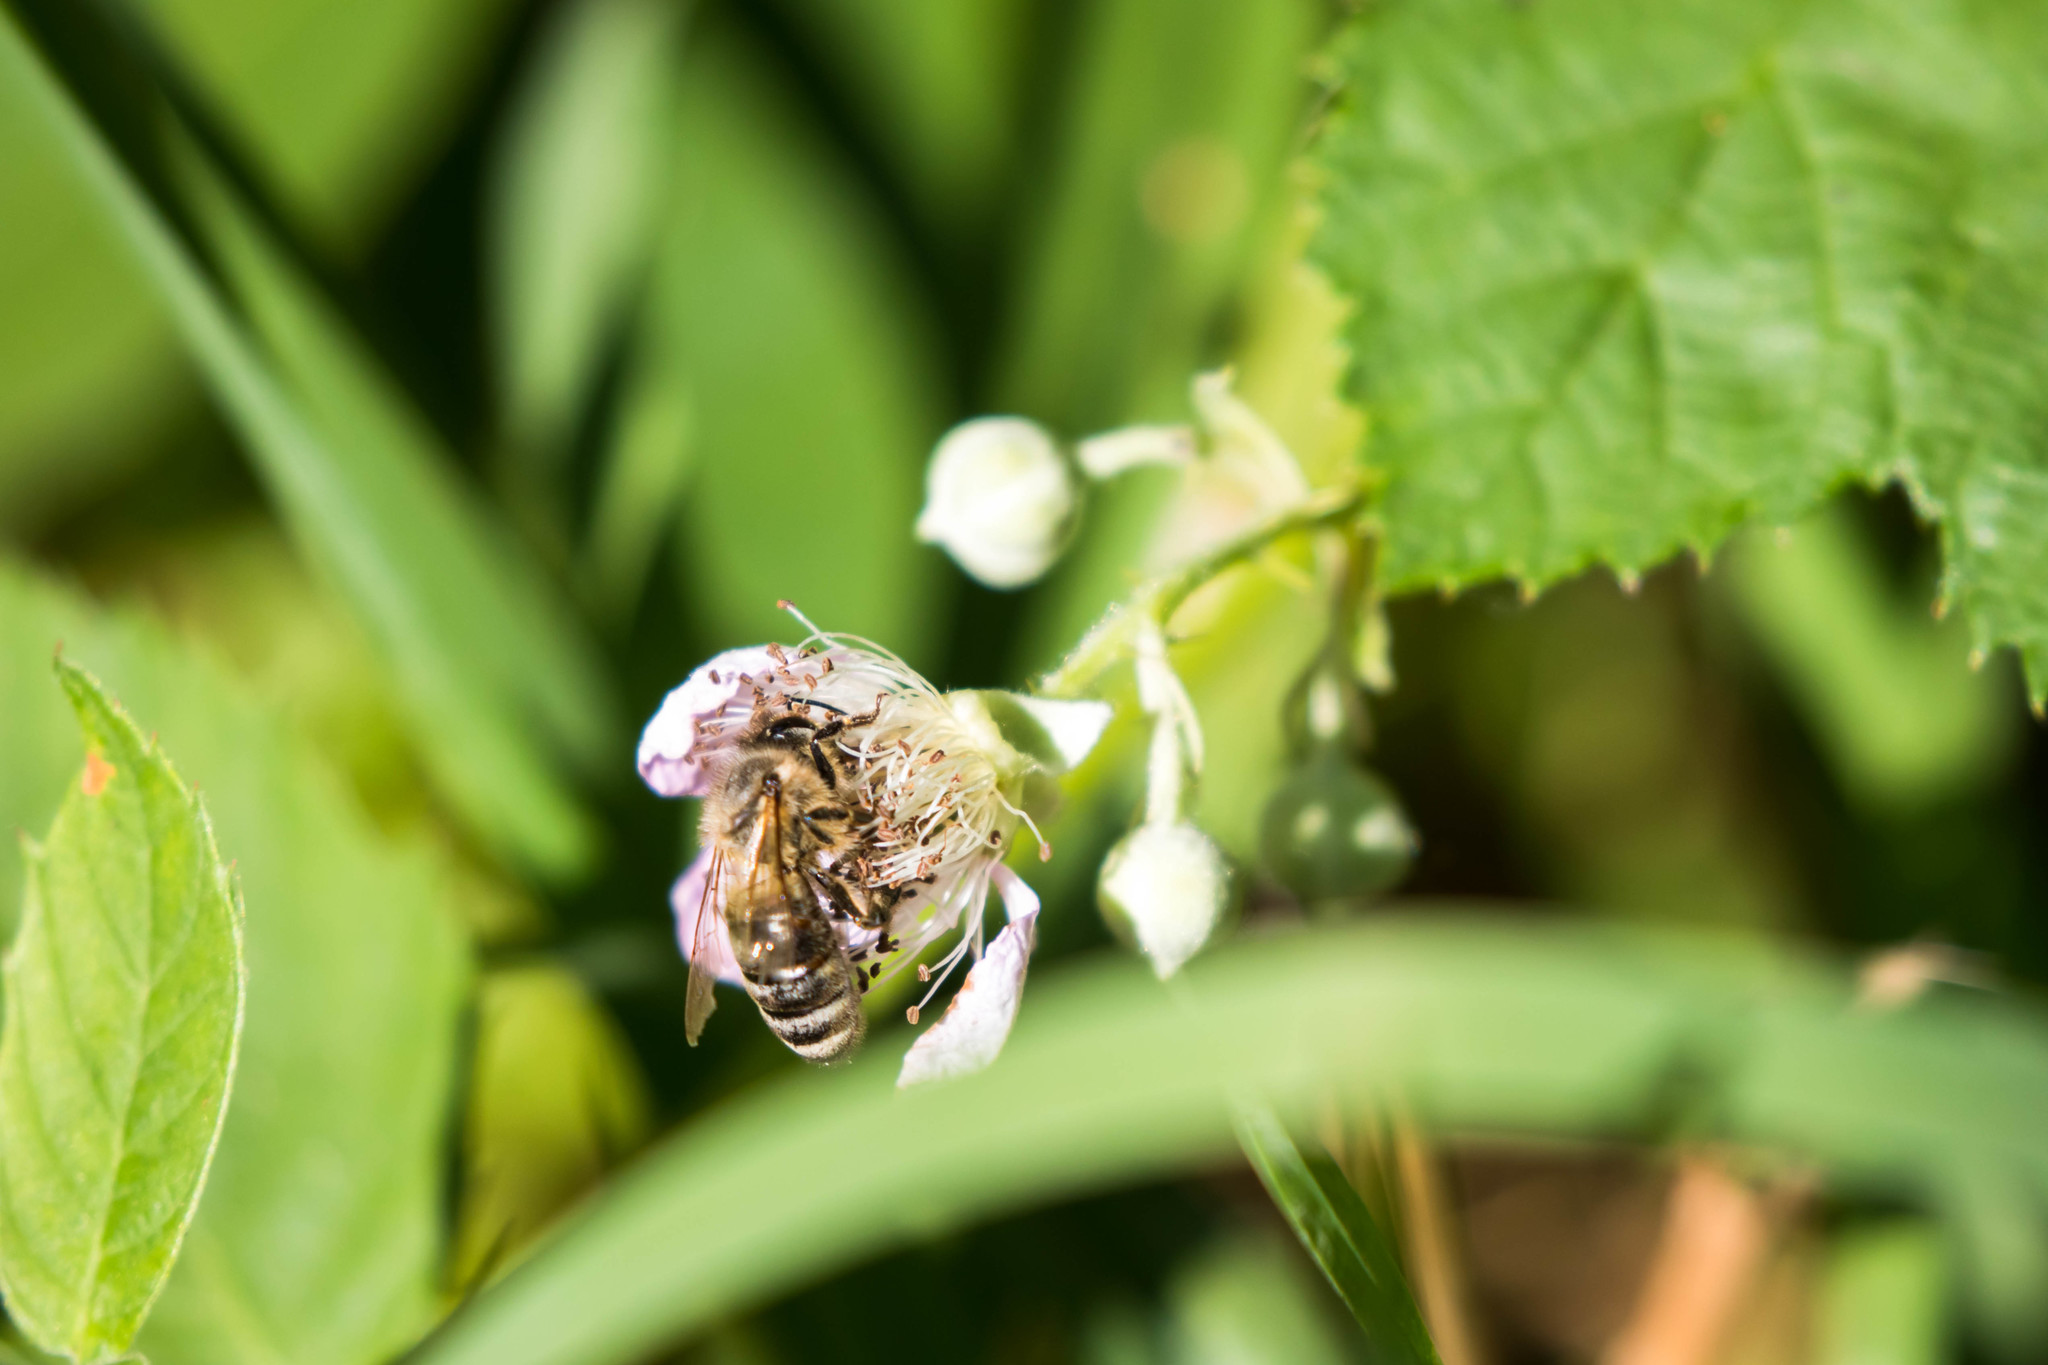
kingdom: Animalia
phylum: Arthropoda
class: Insecta
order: Hymenoptera
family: Apidae
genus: Apis
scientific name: Apis mellifera
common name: Honey bee
